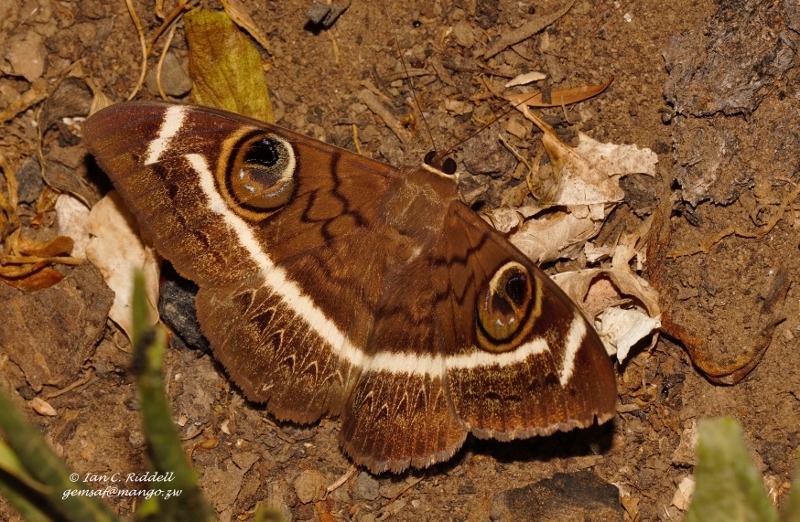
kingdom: Animalia
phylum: Arthropoda
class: Insecta
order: Lepidoptera
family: Erebidae
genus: Cyligramma
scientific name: Cyligramma latona
